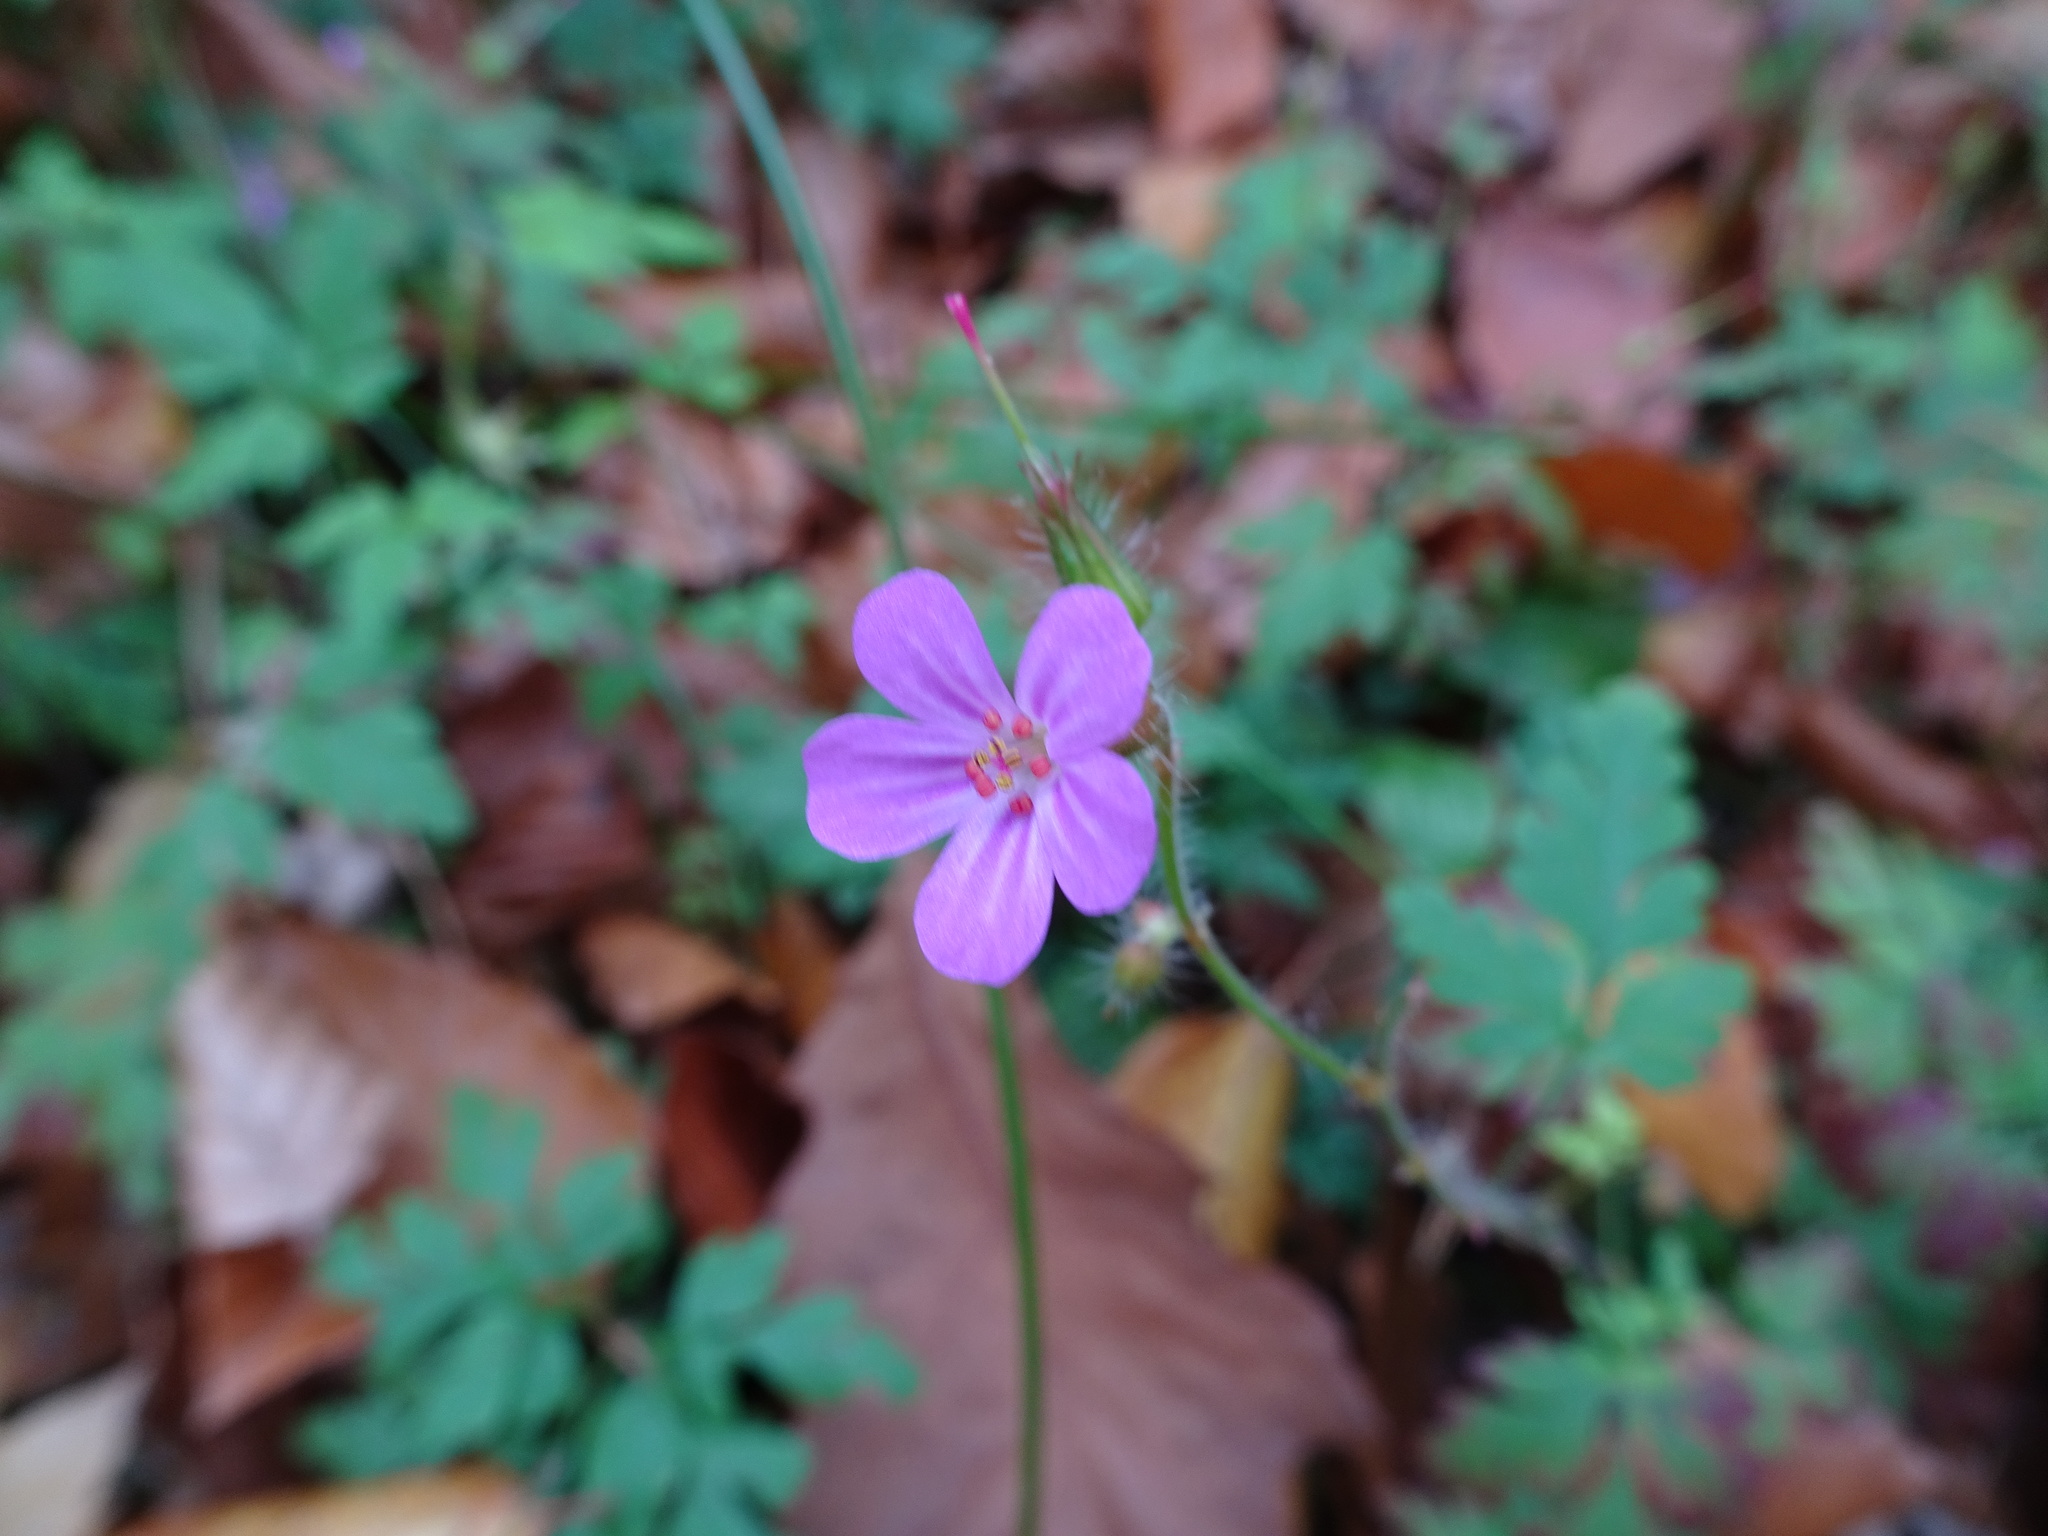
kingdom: Plantae
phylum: Tracheophyta
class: Magnoliopsida
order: Geraniales
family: Geraniaceae
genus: Geranium
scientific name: Geranium robertianum
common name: Herb-robert
